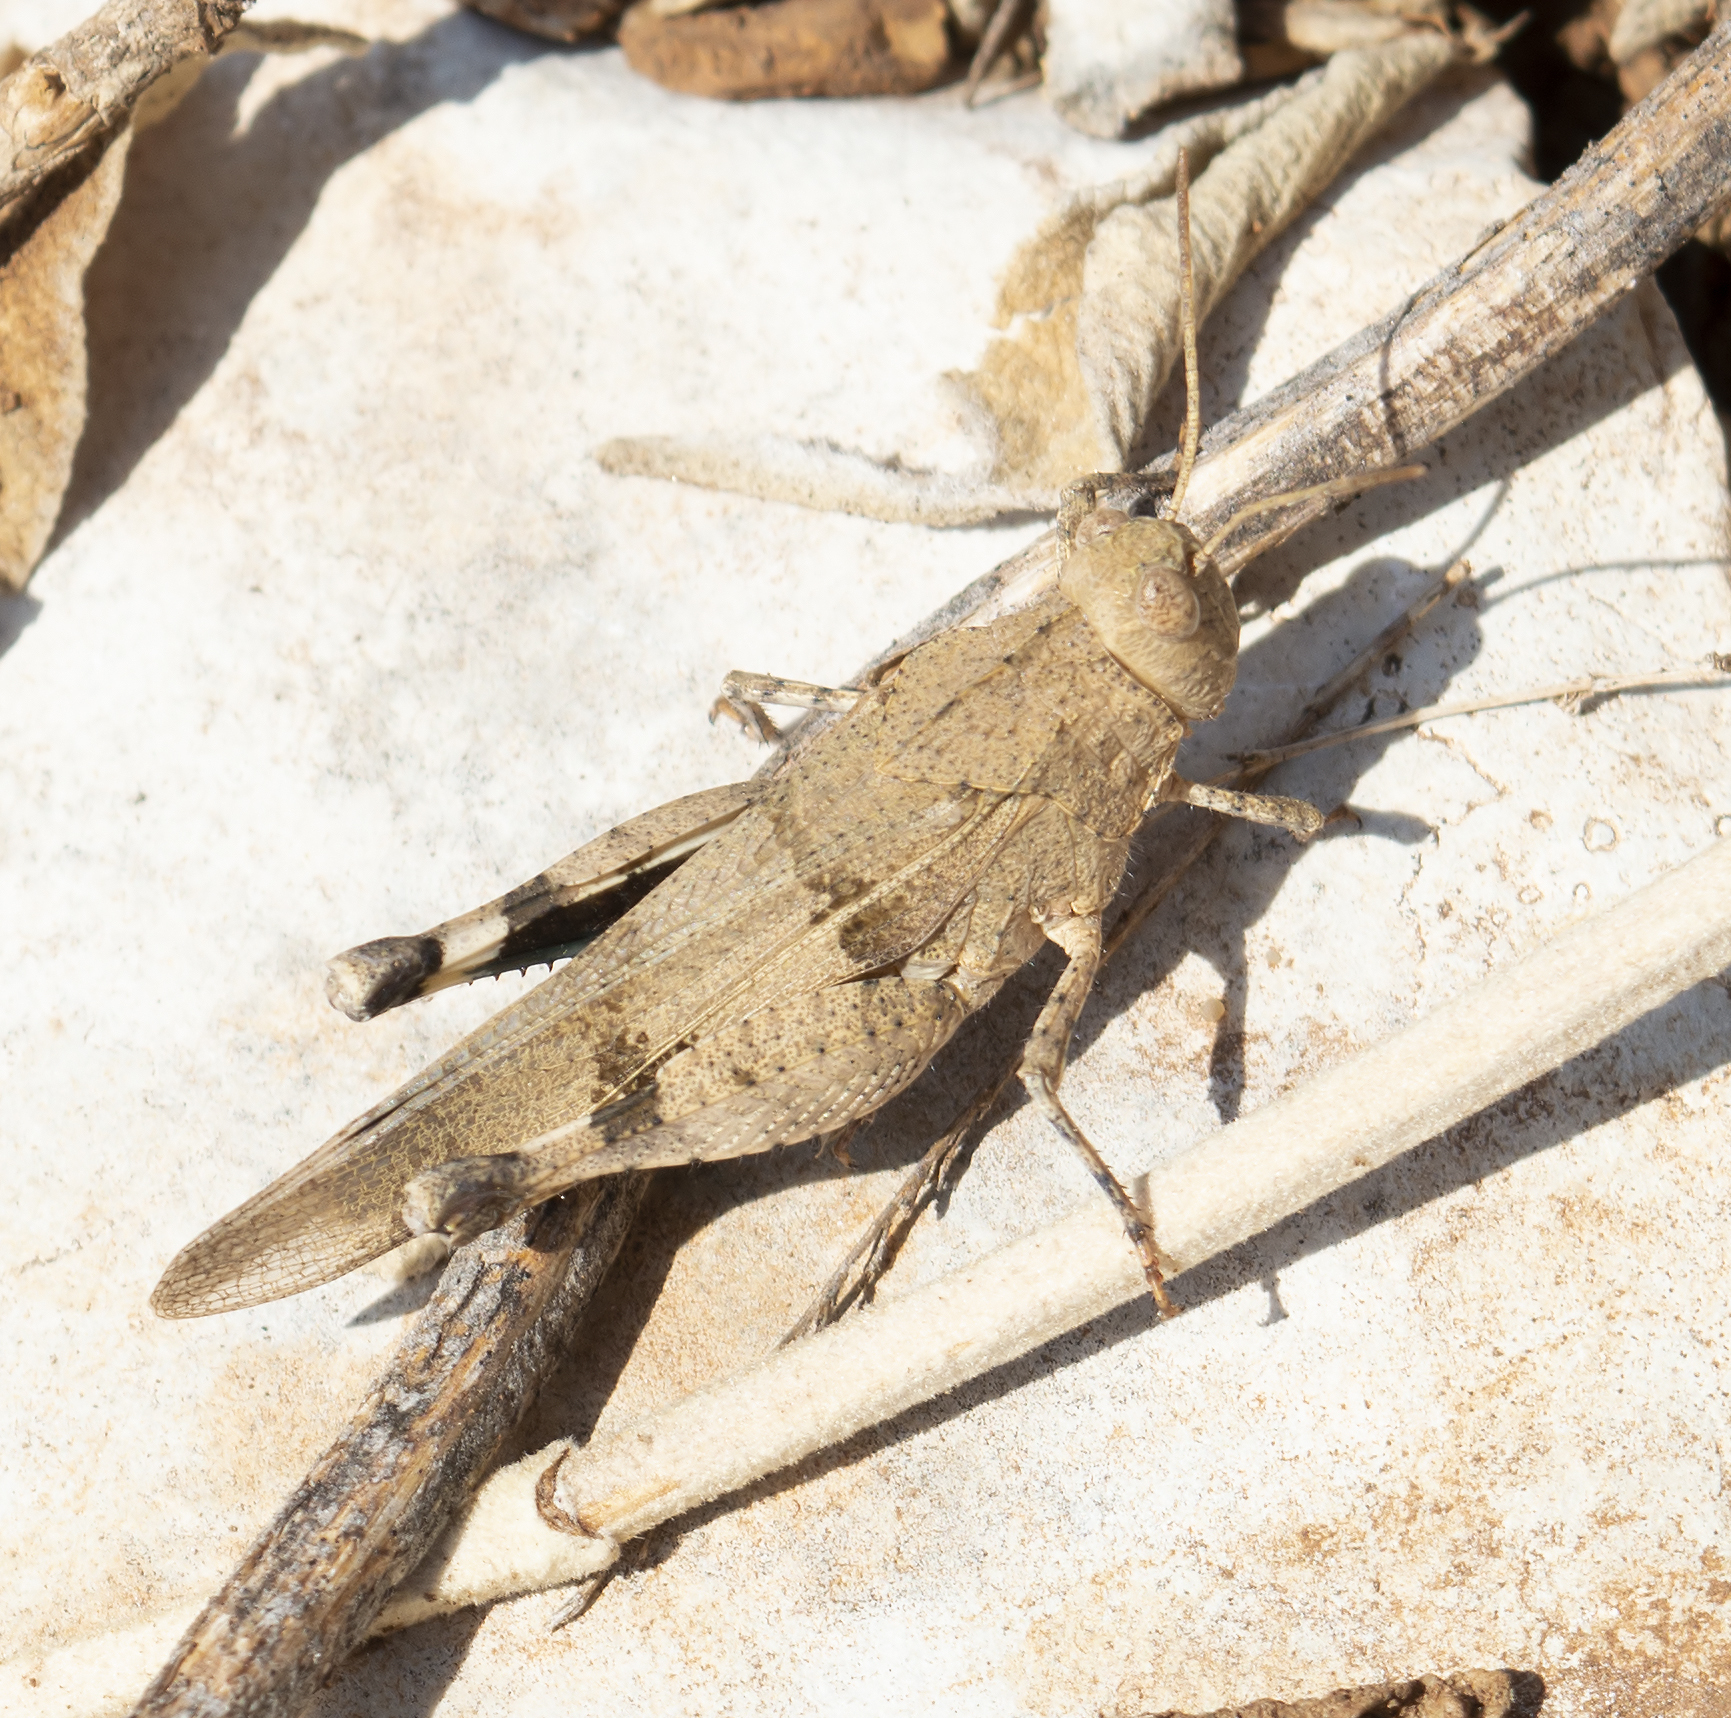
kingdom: Animalia
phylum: Arthropoda
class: Insecta
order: Orthoptera
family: Acrididae
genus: Oedipoda
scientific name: Oedipoda caerulescens
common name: Blue-winged grasshopper
